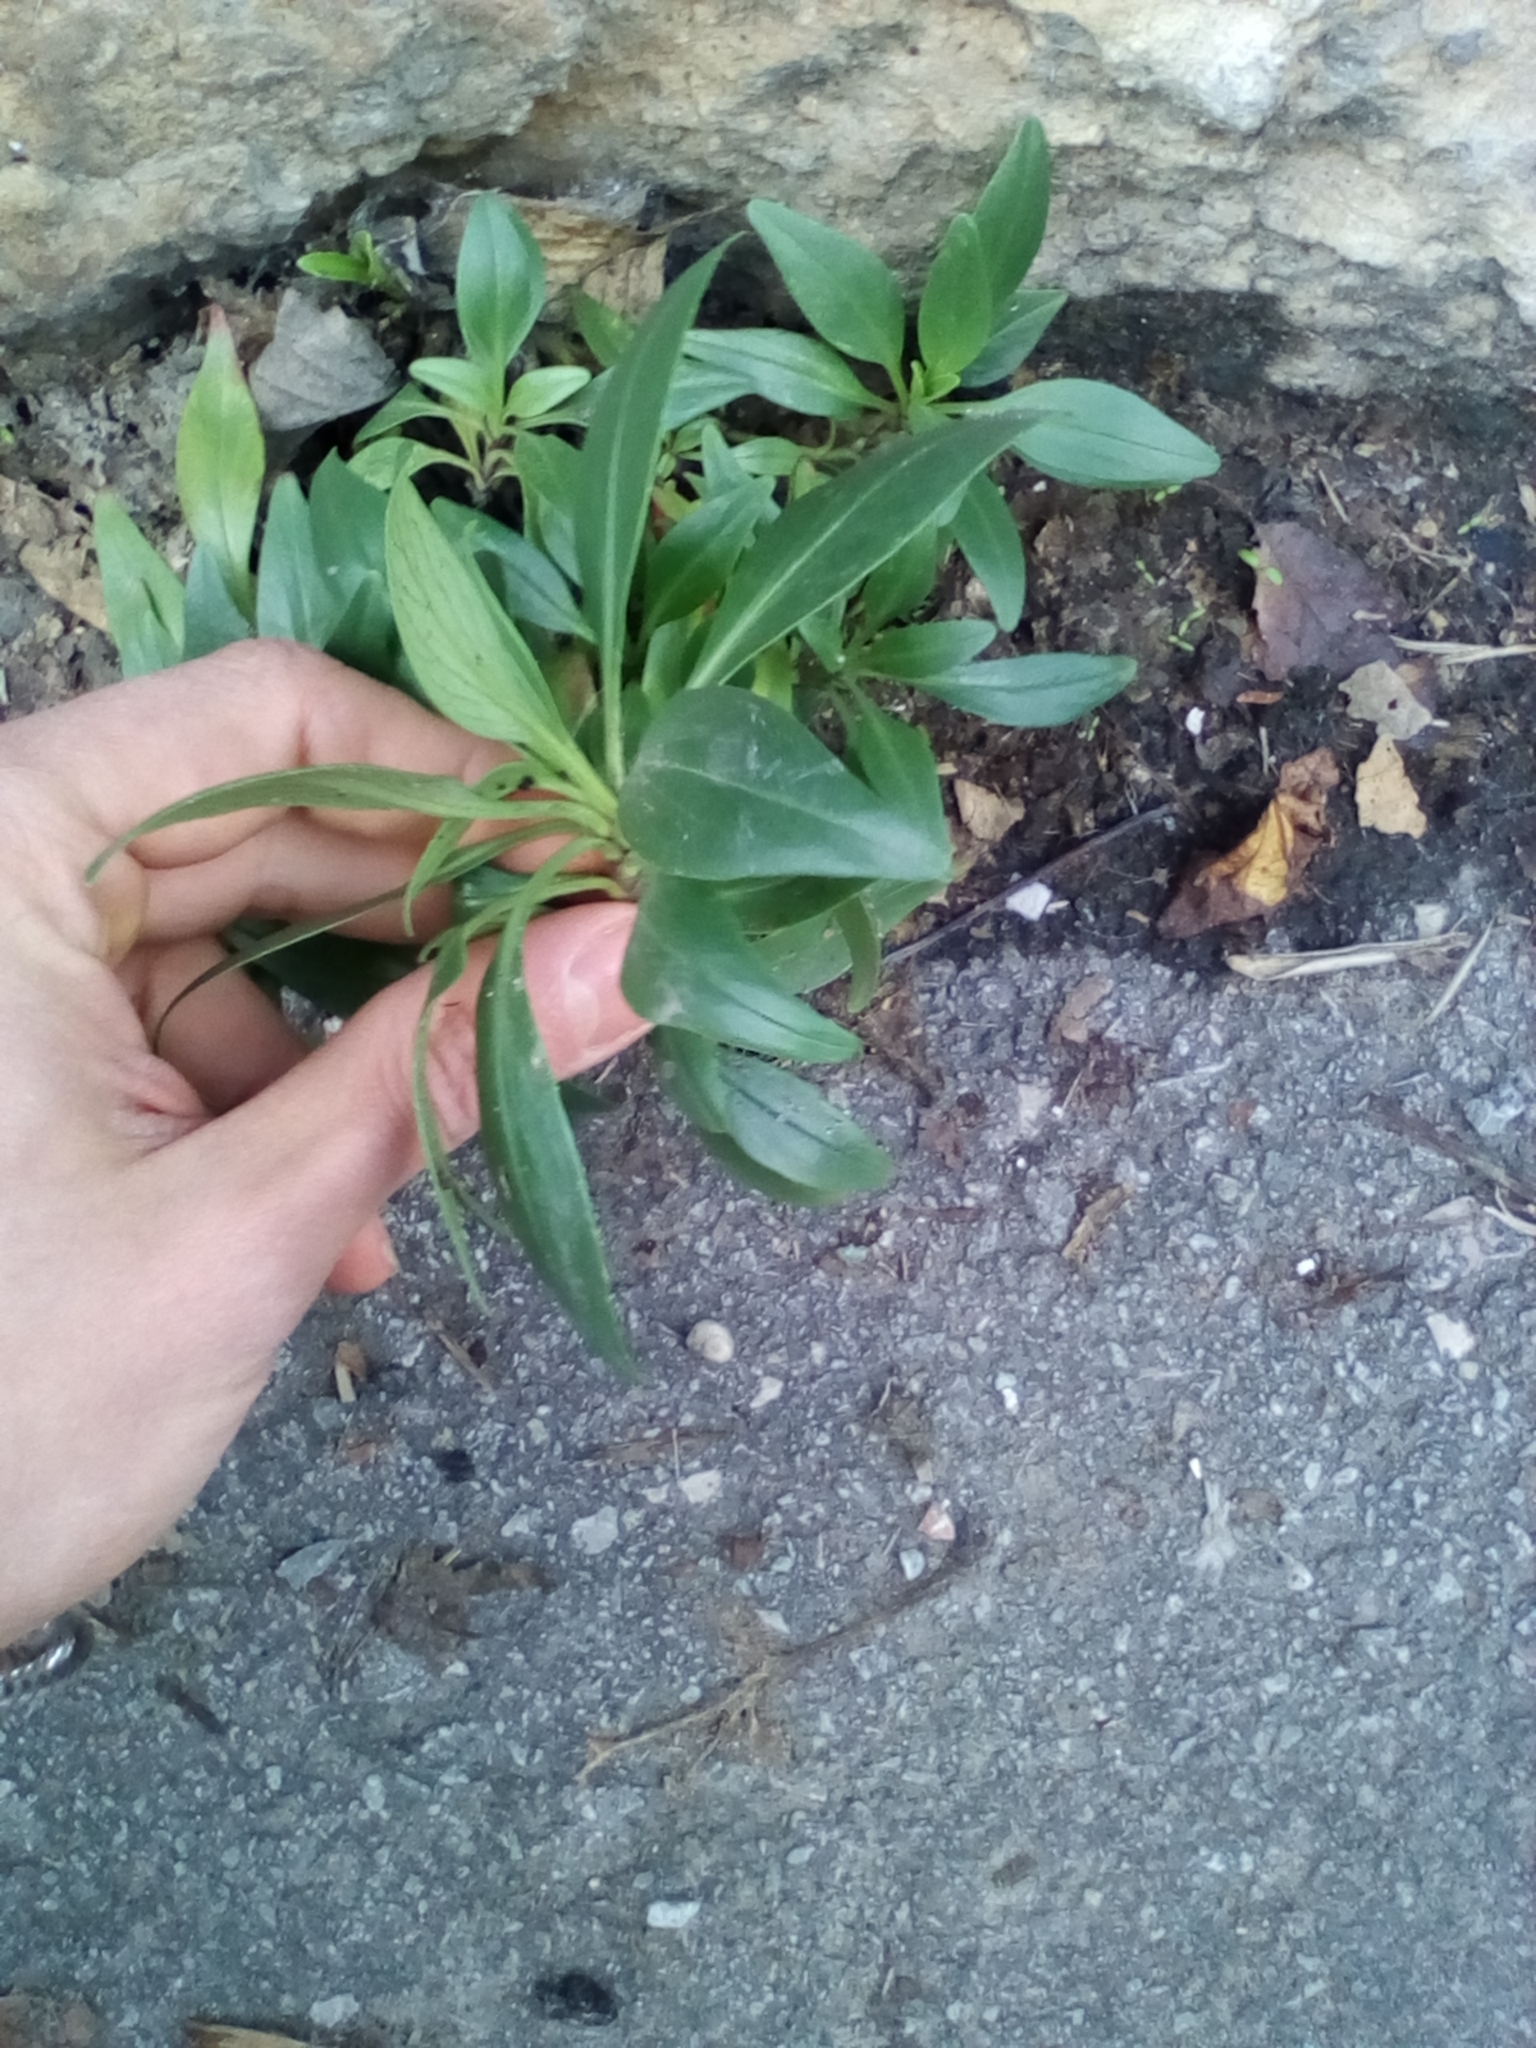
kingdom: Plantae
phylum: Tracheophyta
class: Magnoliopsida
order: Lamiales
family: Plantaginaceae
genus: Antirrhinum
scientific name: Antirrhinum majus
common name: Snapdragon
